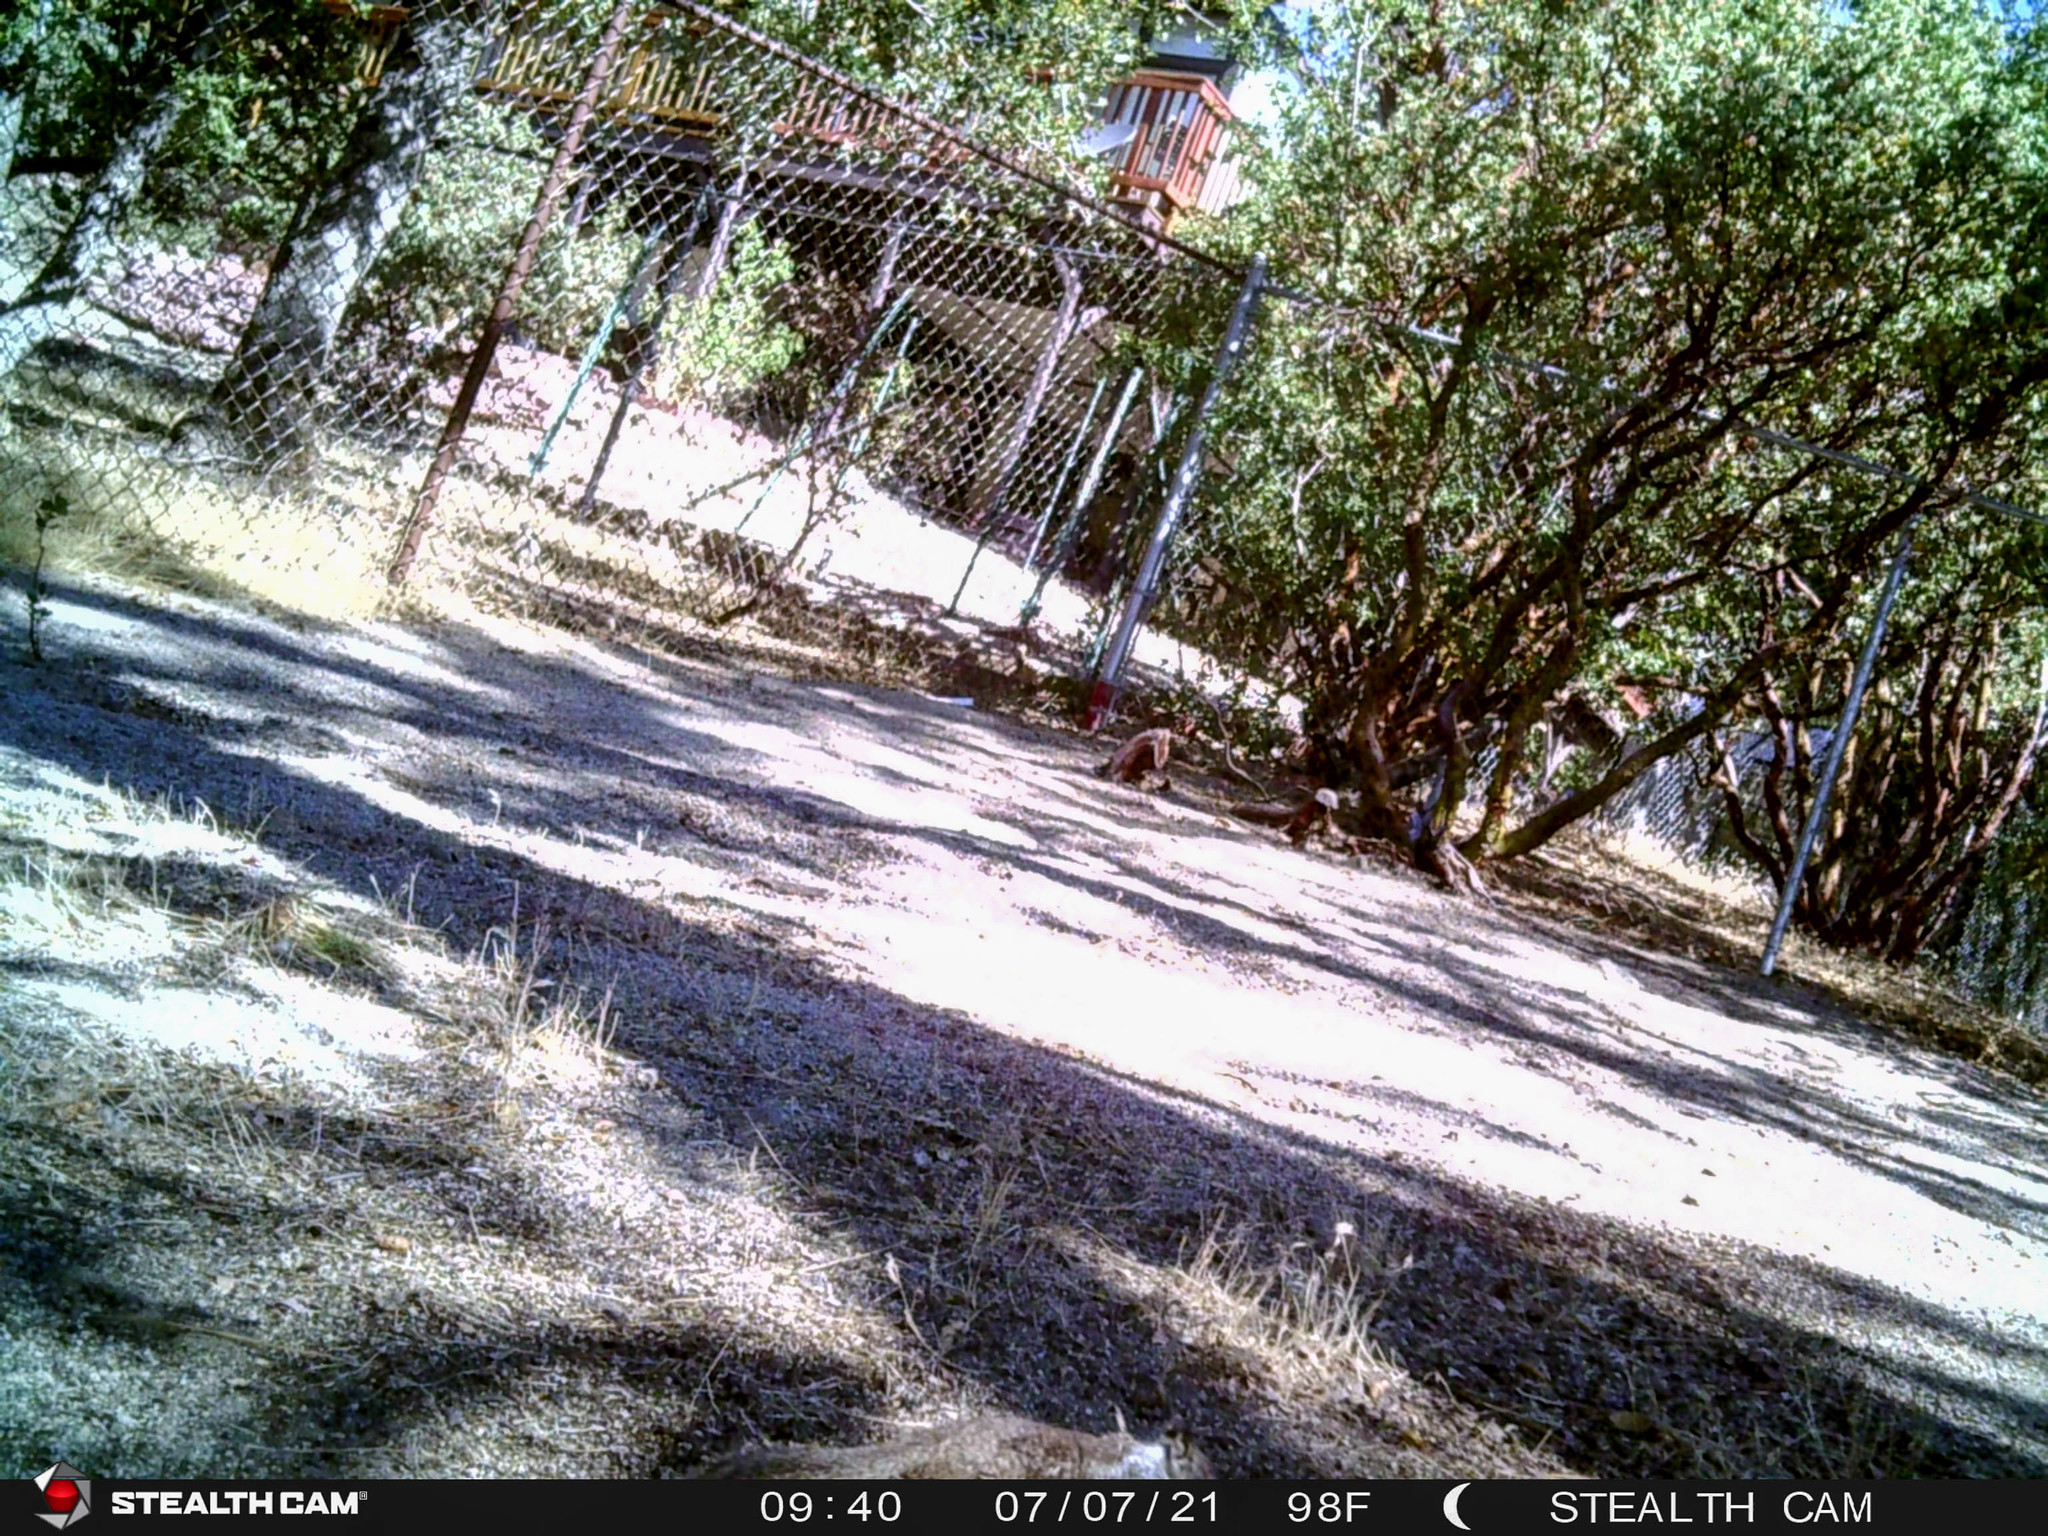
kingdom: Animalia
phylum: Chordata
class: Mammalia
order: Rodentia
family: Sciuridae
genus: Otospermophilus
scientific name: Otospermophilus beecheyi
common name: California ground squirrel
